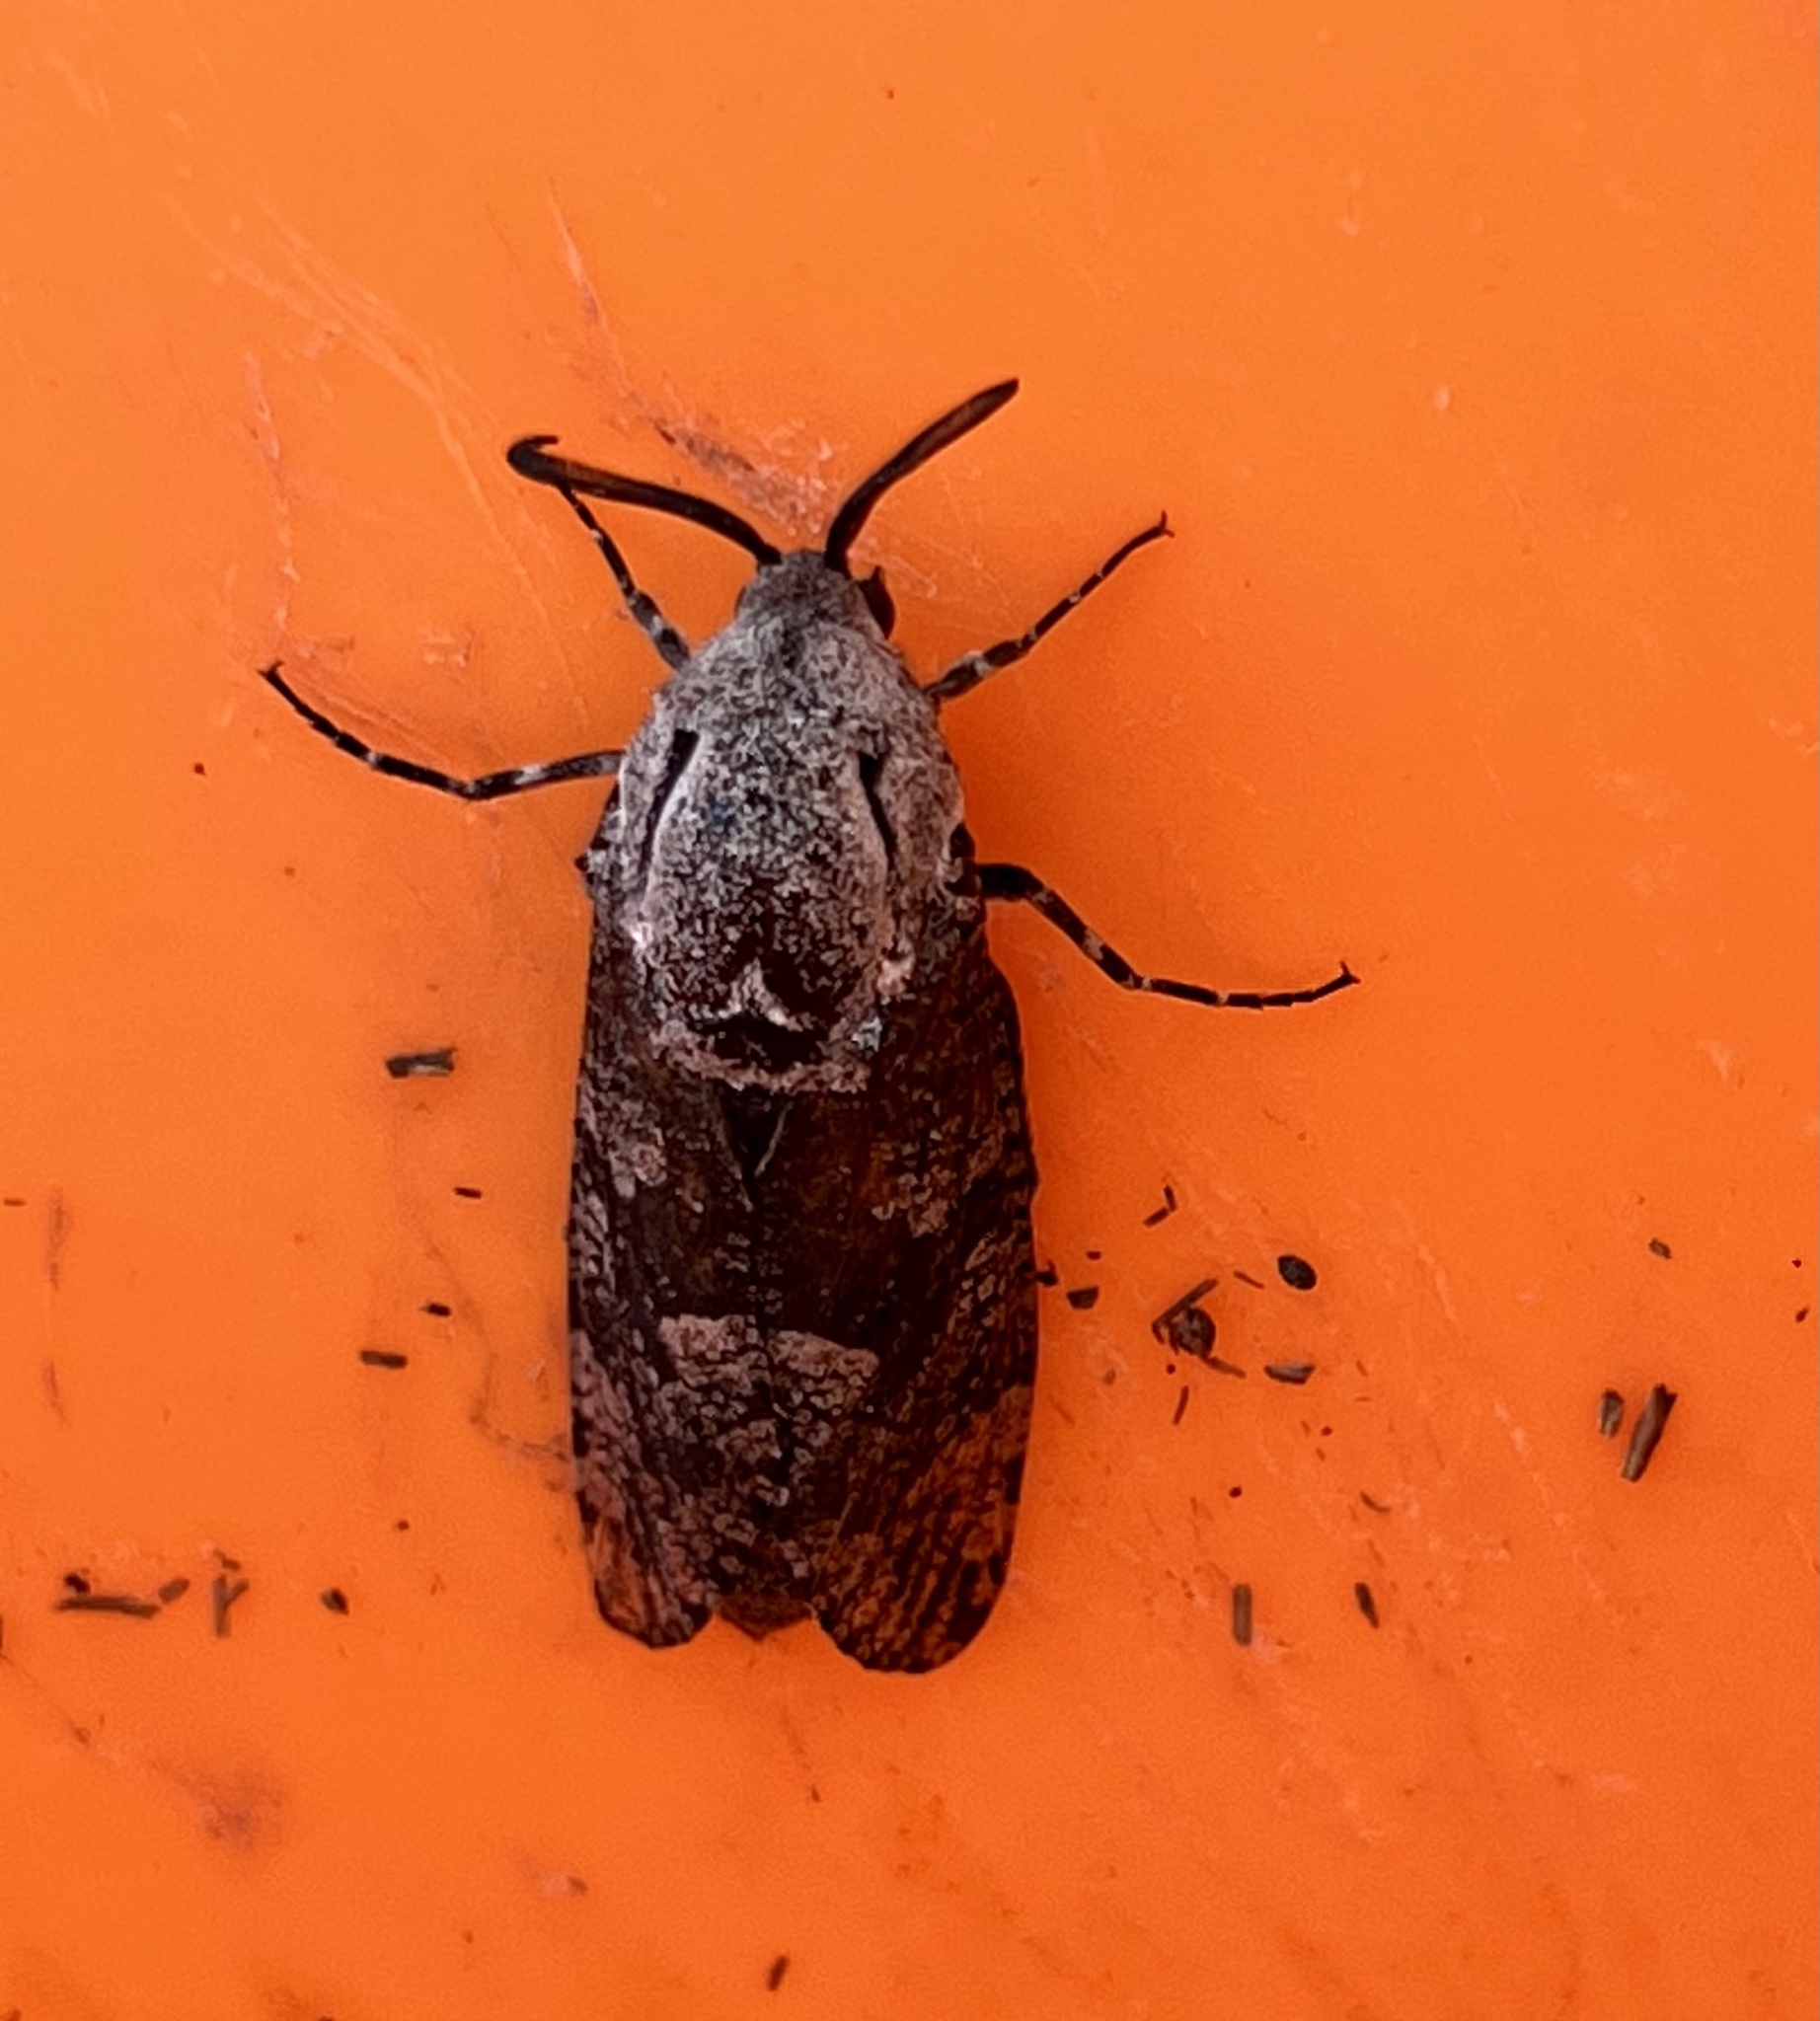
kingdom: Animalia
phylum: Arthropoda
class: Insecta
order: Lepidoptera
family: Cossidae
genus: Prionoxystus
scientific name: Prionoxystus robiniae
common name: Carpenterworm
